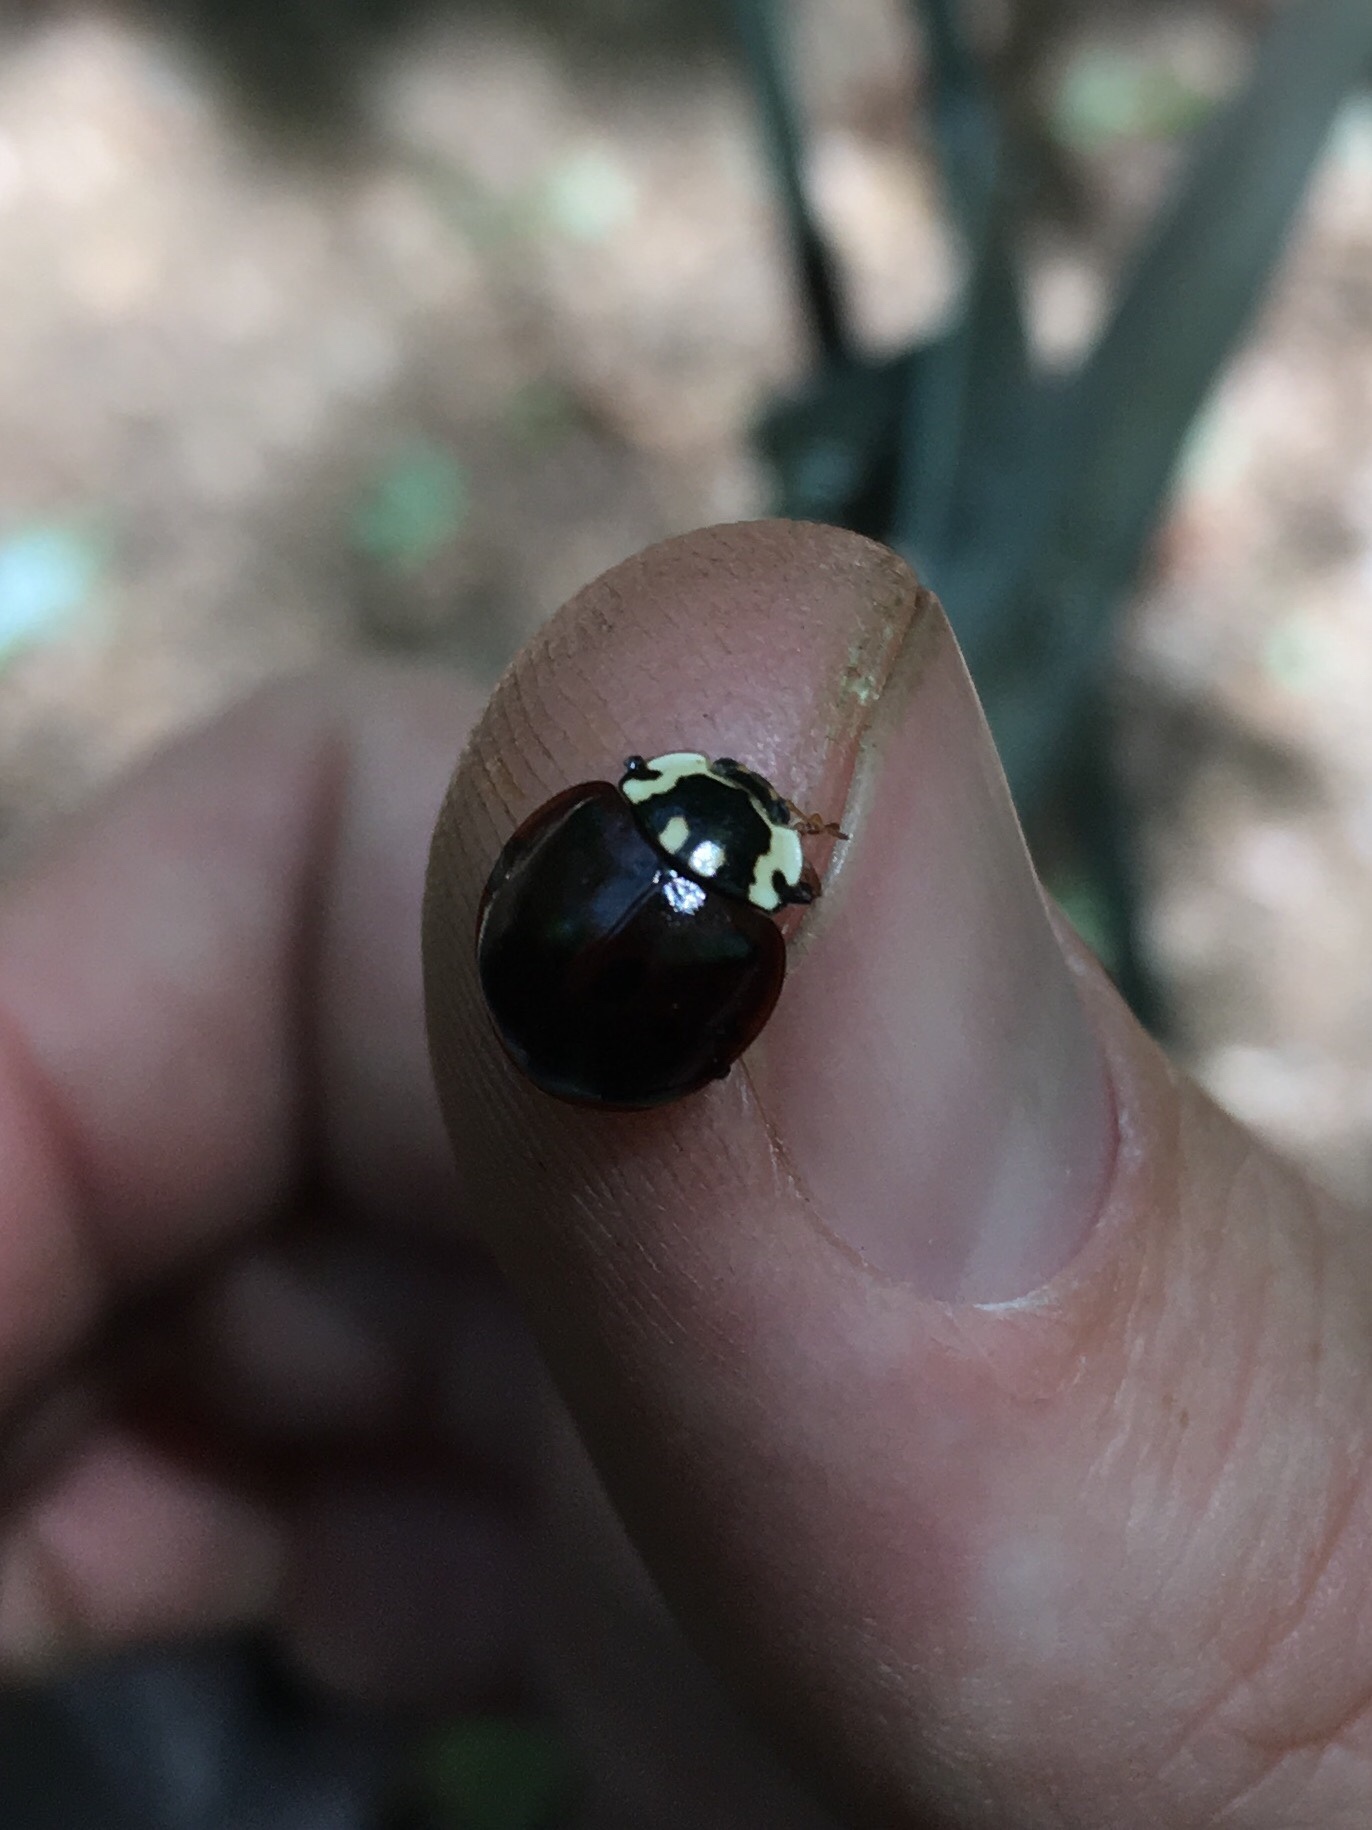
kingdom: Animalia
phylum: Arthropoda
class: Insecta
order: Coleoptera
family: Coccinellidae
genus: Anatis
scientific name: Anatis labiculata
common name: Fifteen-spotted lady beetle
